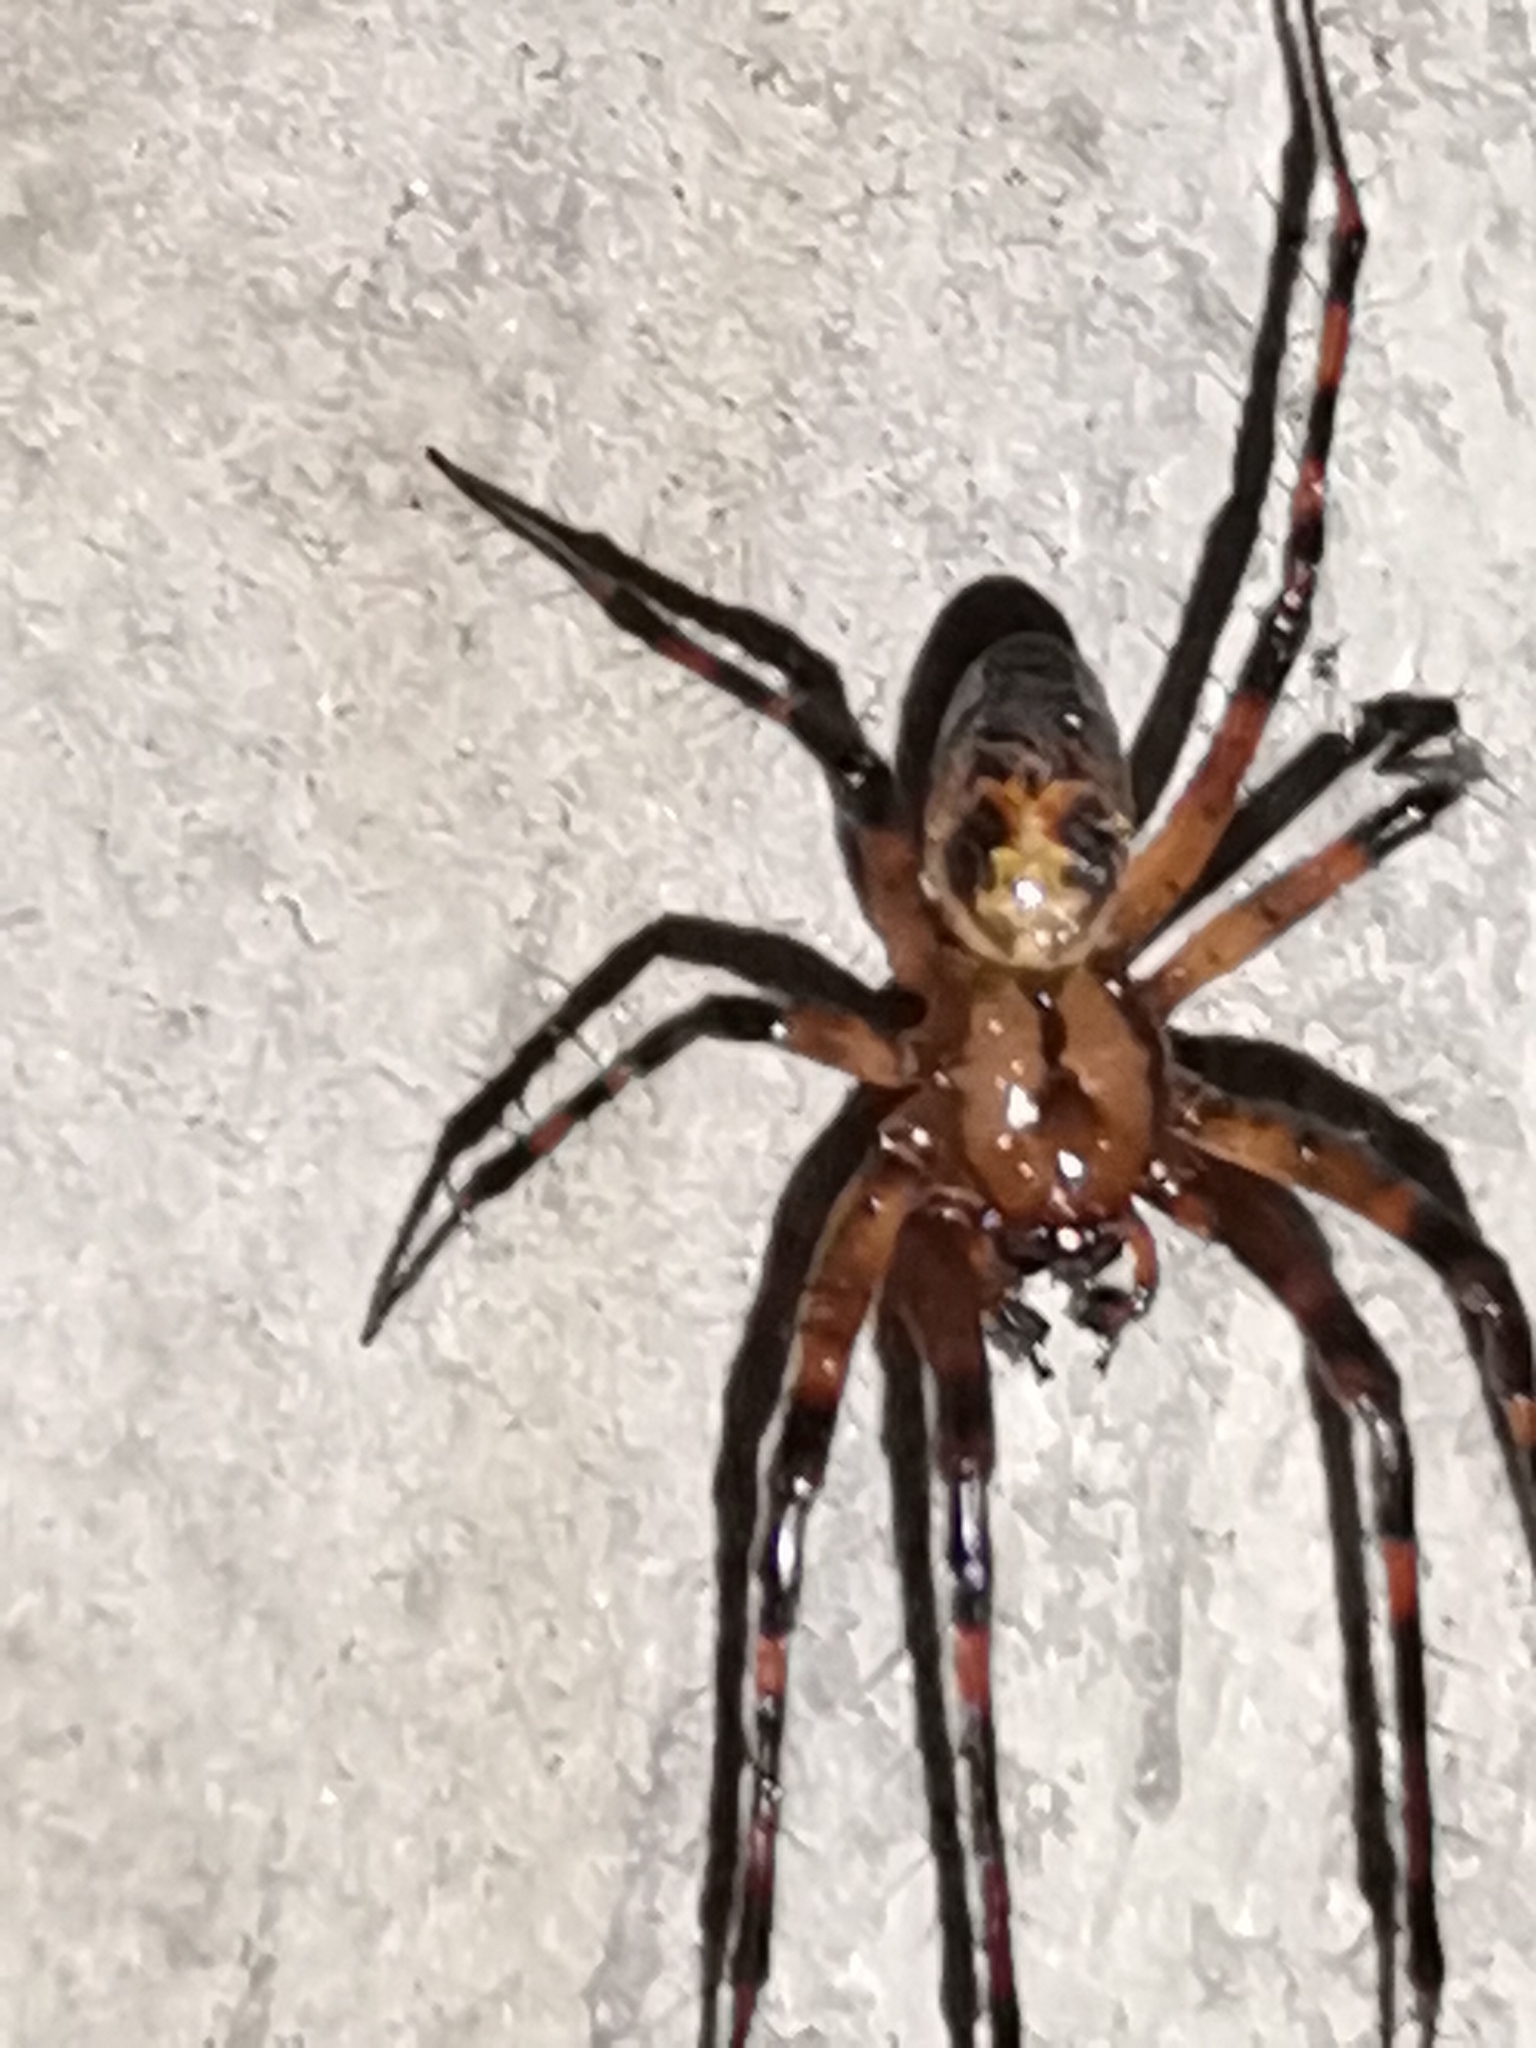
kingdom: Animalia
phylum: Arthropoda
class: Arachnida
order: Araneae
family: Tetragnathidae
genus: Meta
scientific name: Meta menardi
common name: Cave spider
